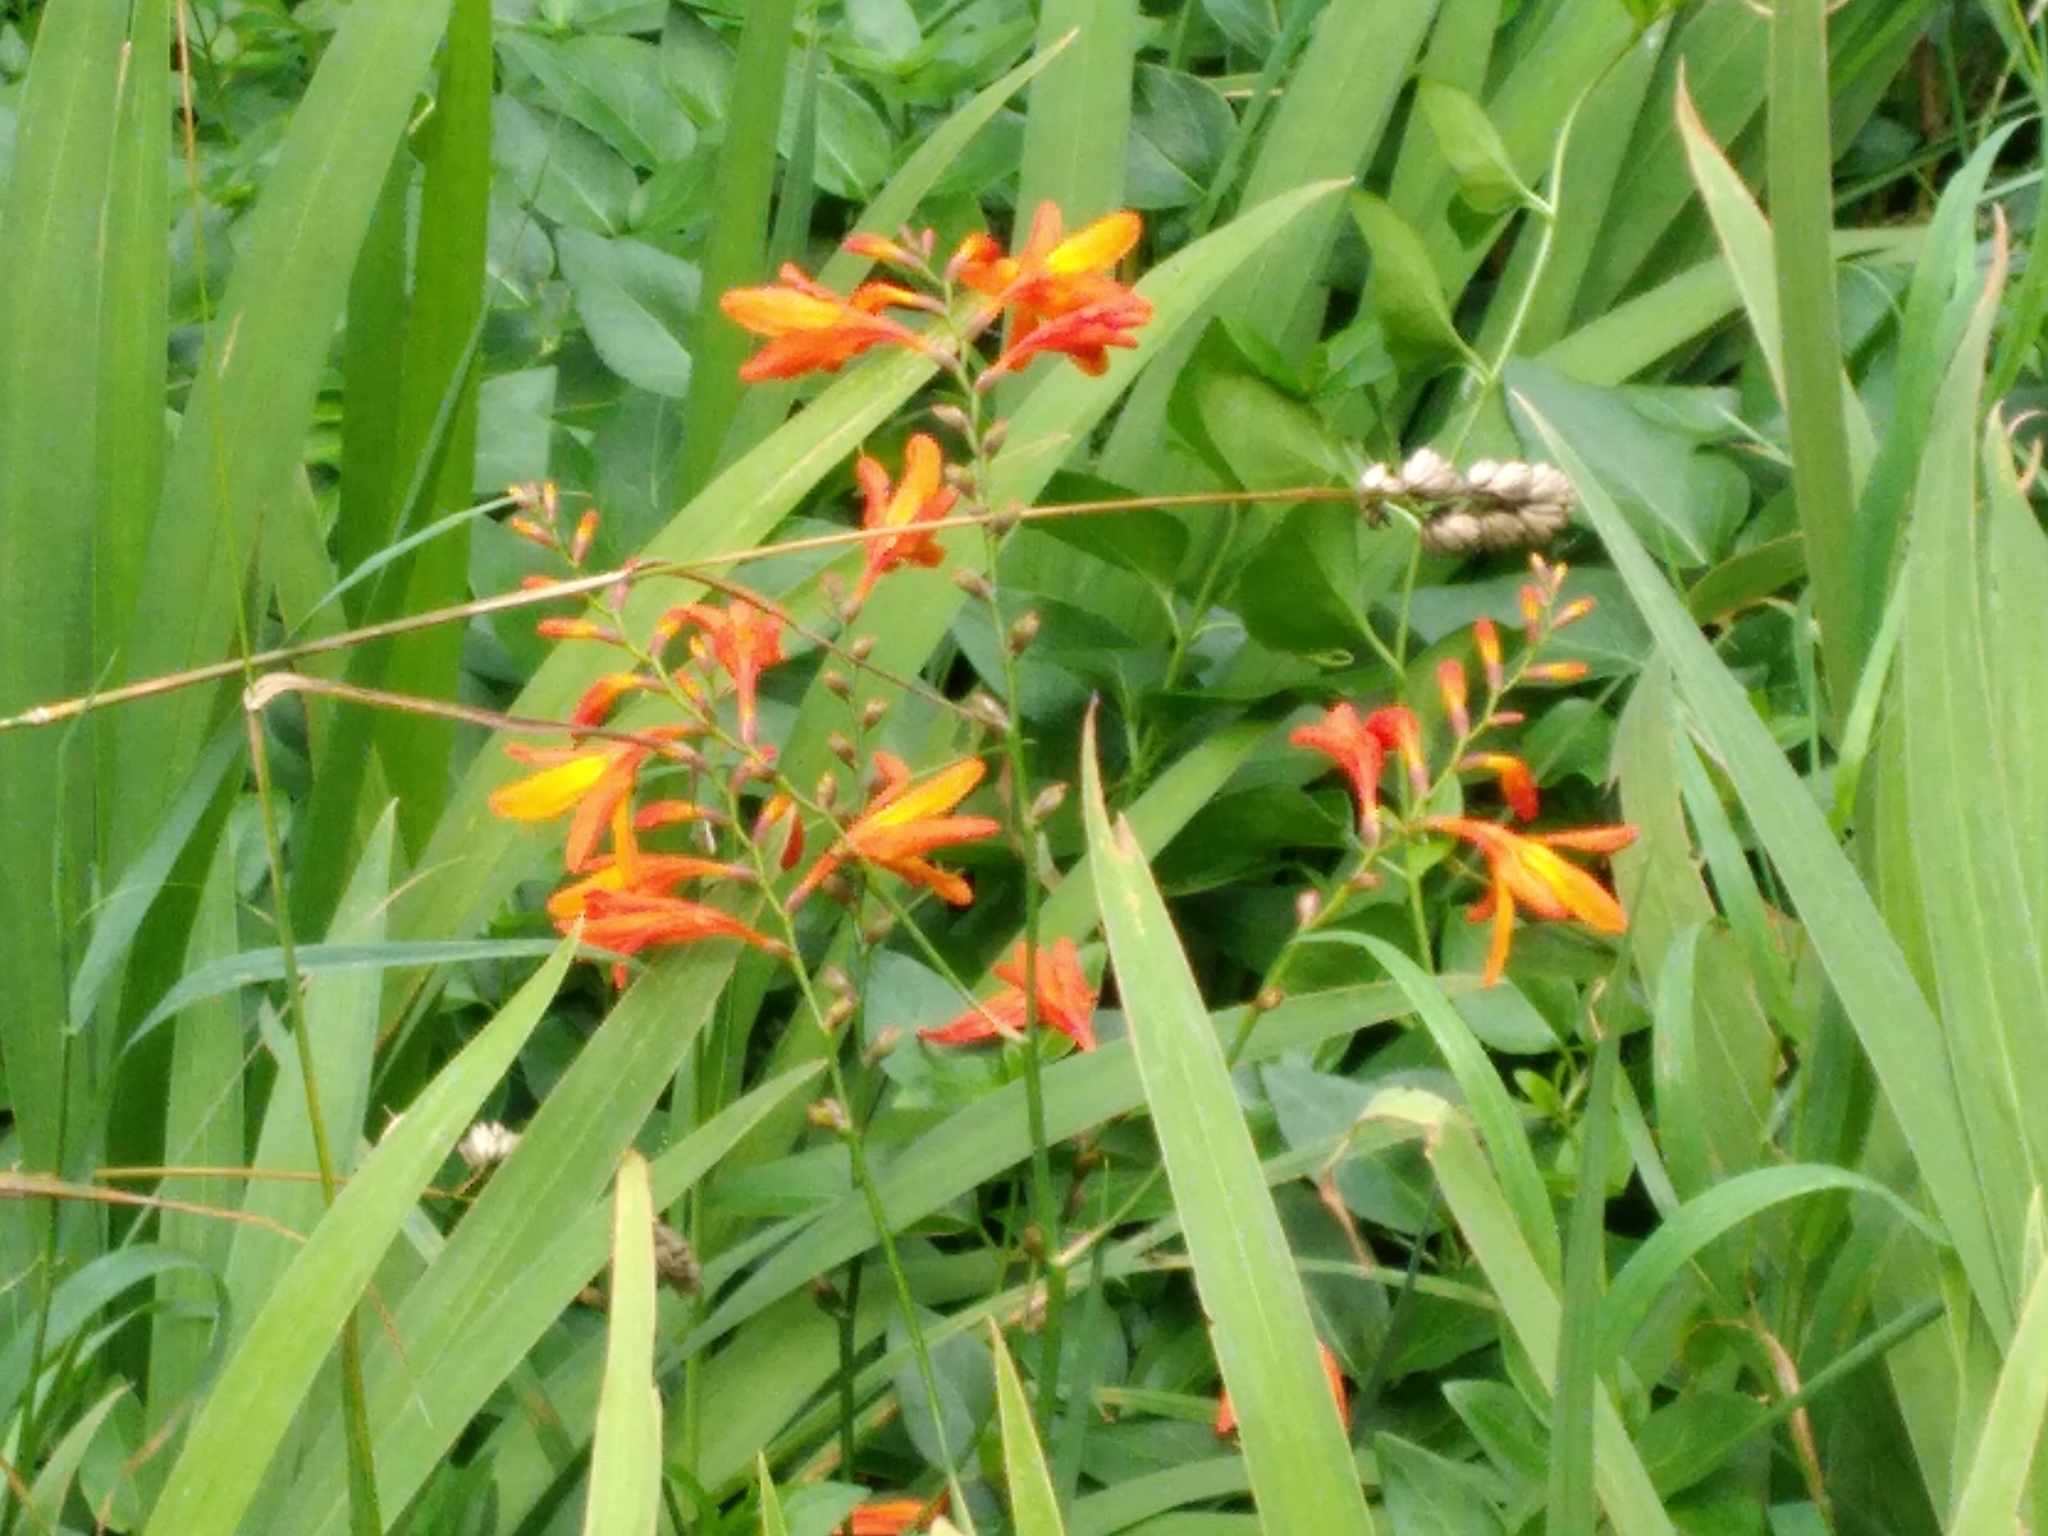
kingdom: Plantae
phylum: Tracheophyta
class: Liliopsida
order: Asparagales
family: Iridaceae
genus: Crocosmia
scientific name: Crocosmia crocosmiiflora
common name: Montbretia
